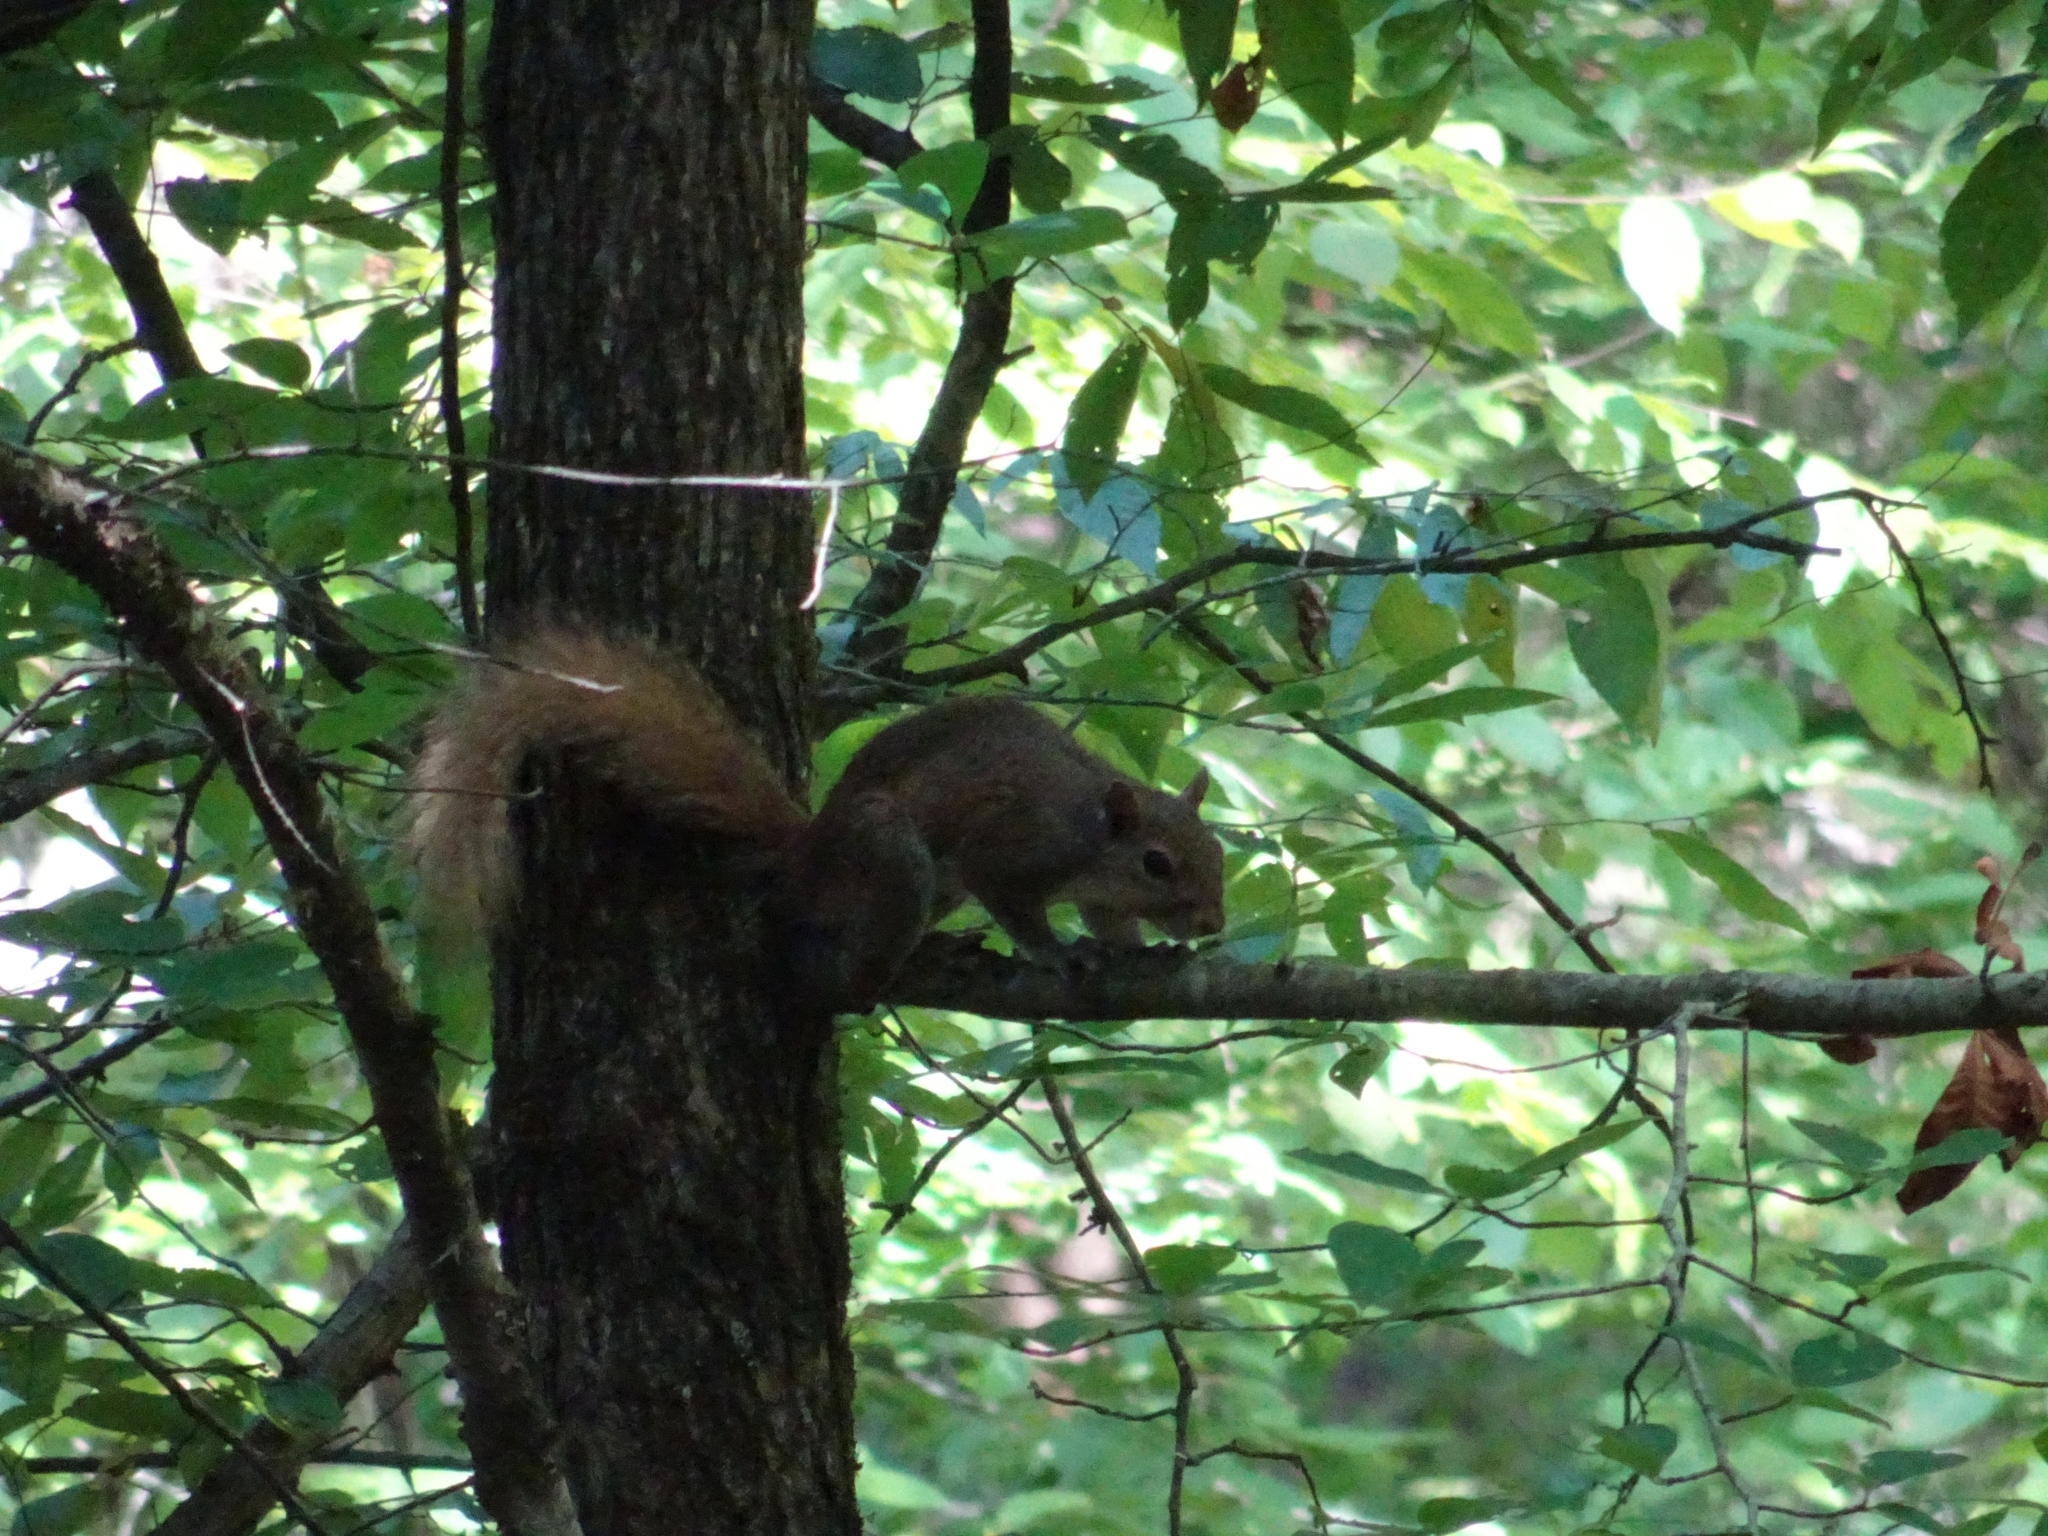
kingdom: Animalia
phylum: Chordata
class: Mammalia
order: Rodentia
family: Sciuridae
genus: Sciurus
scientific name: Sciurus carolinensis
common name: Eastern gray squirrel
